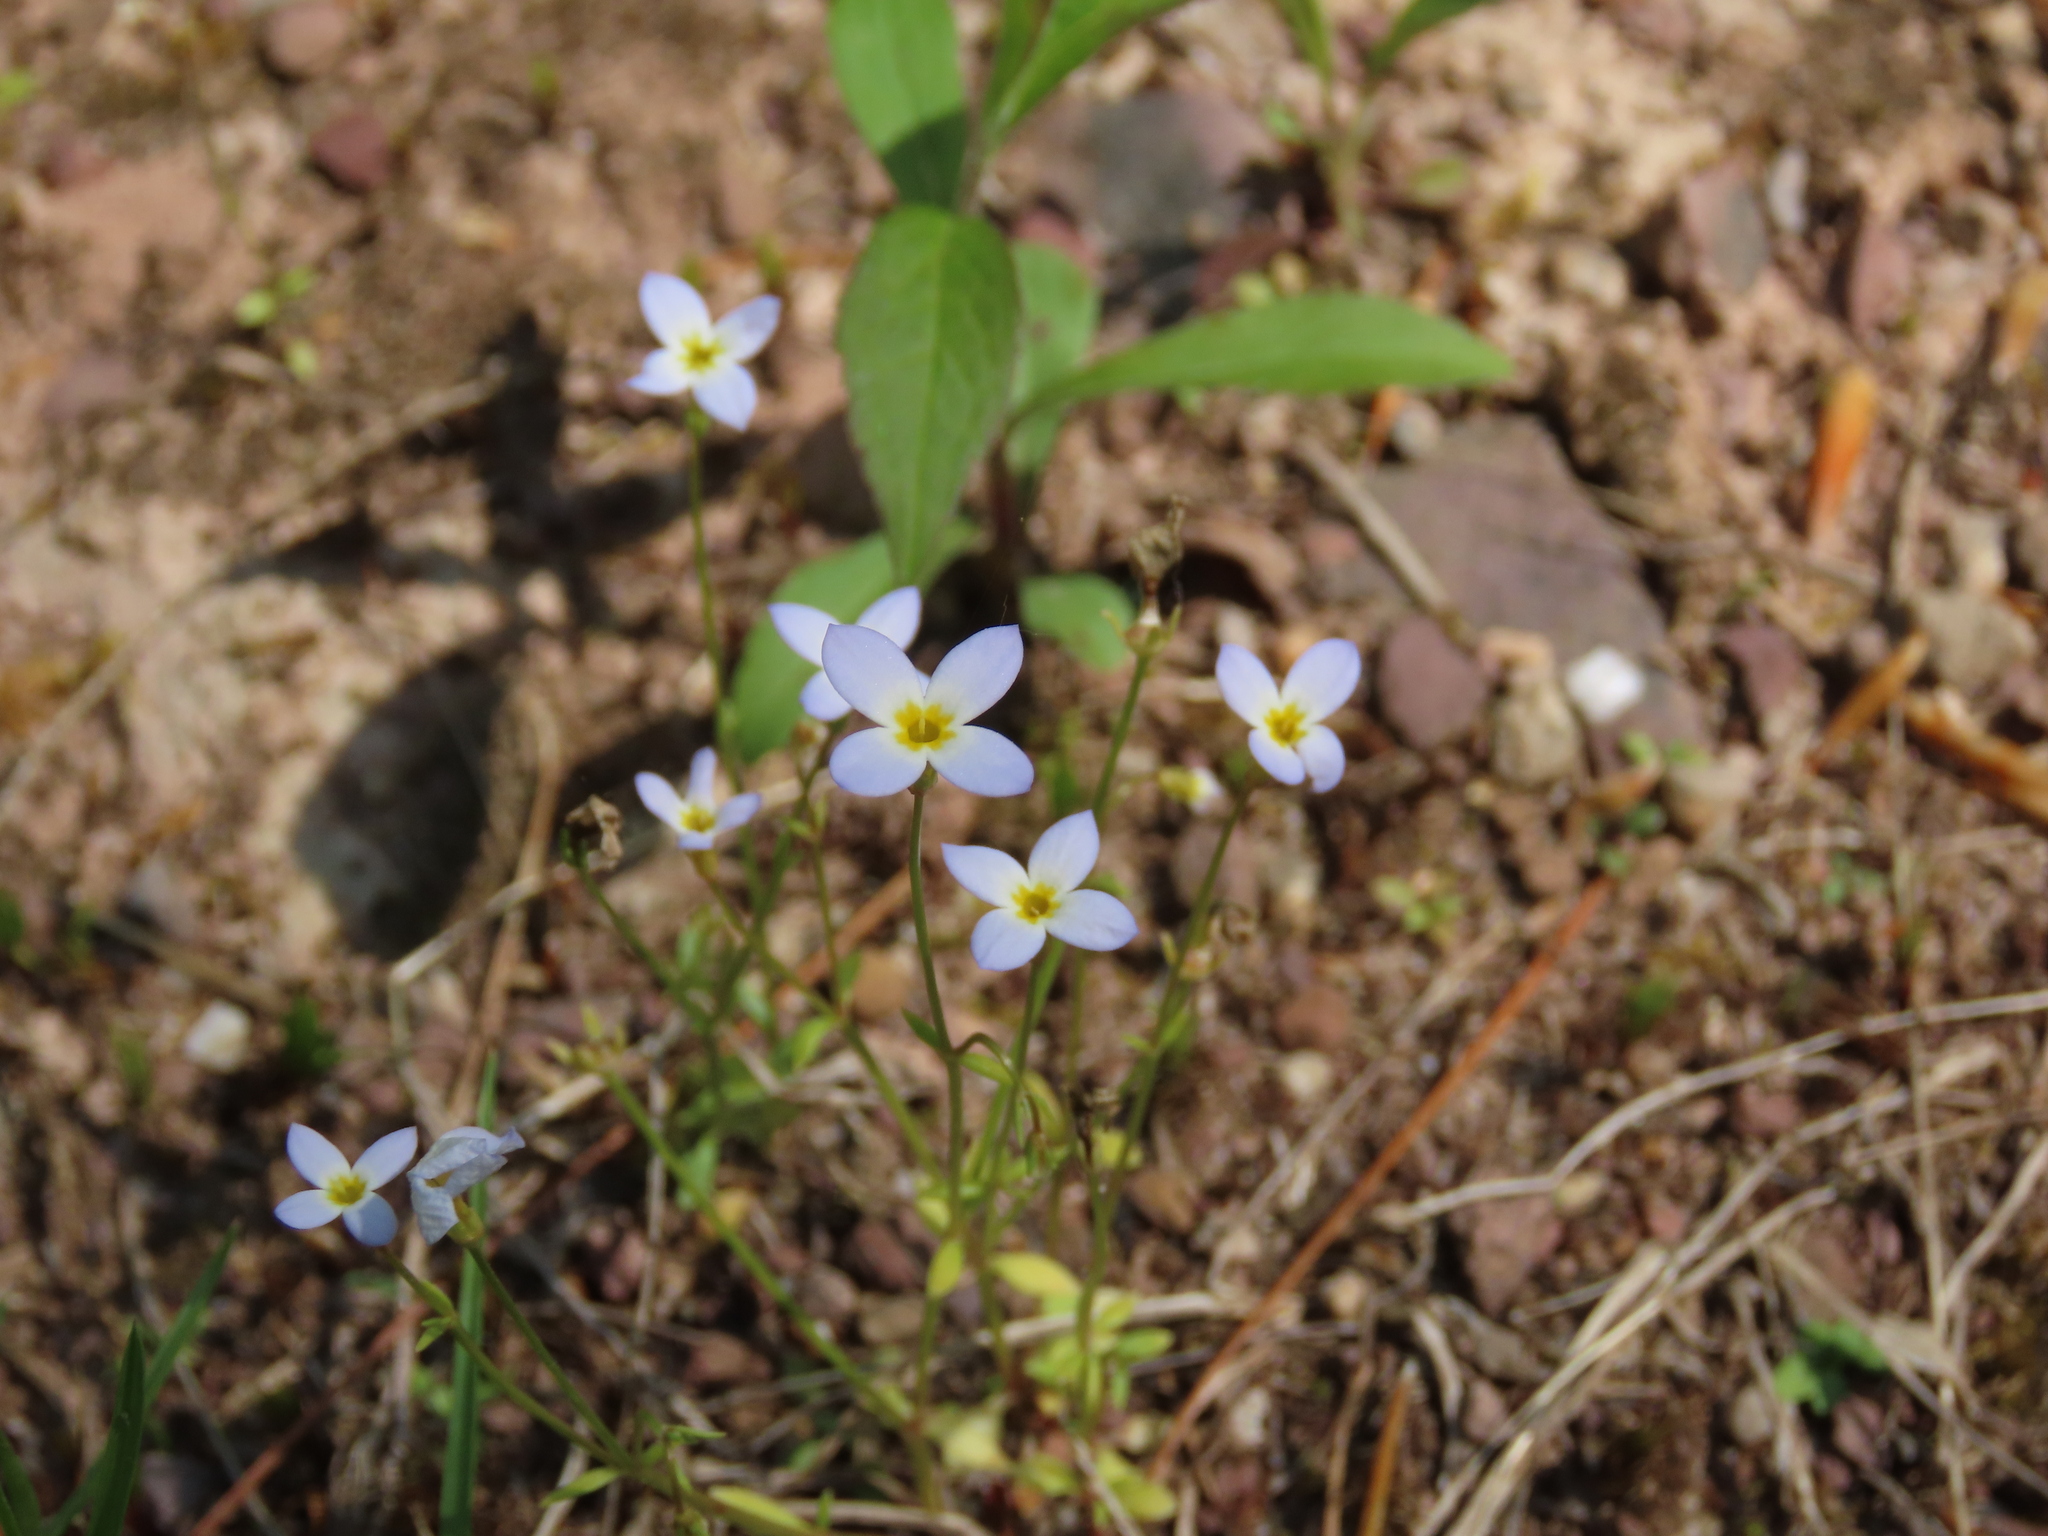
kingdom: Plantae
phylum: Tracheophyta
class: Magnoliopsida
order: Gentianales
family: Rubiaceae
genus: Houstonia
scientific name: Houstonia caerulea
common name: Bluets
